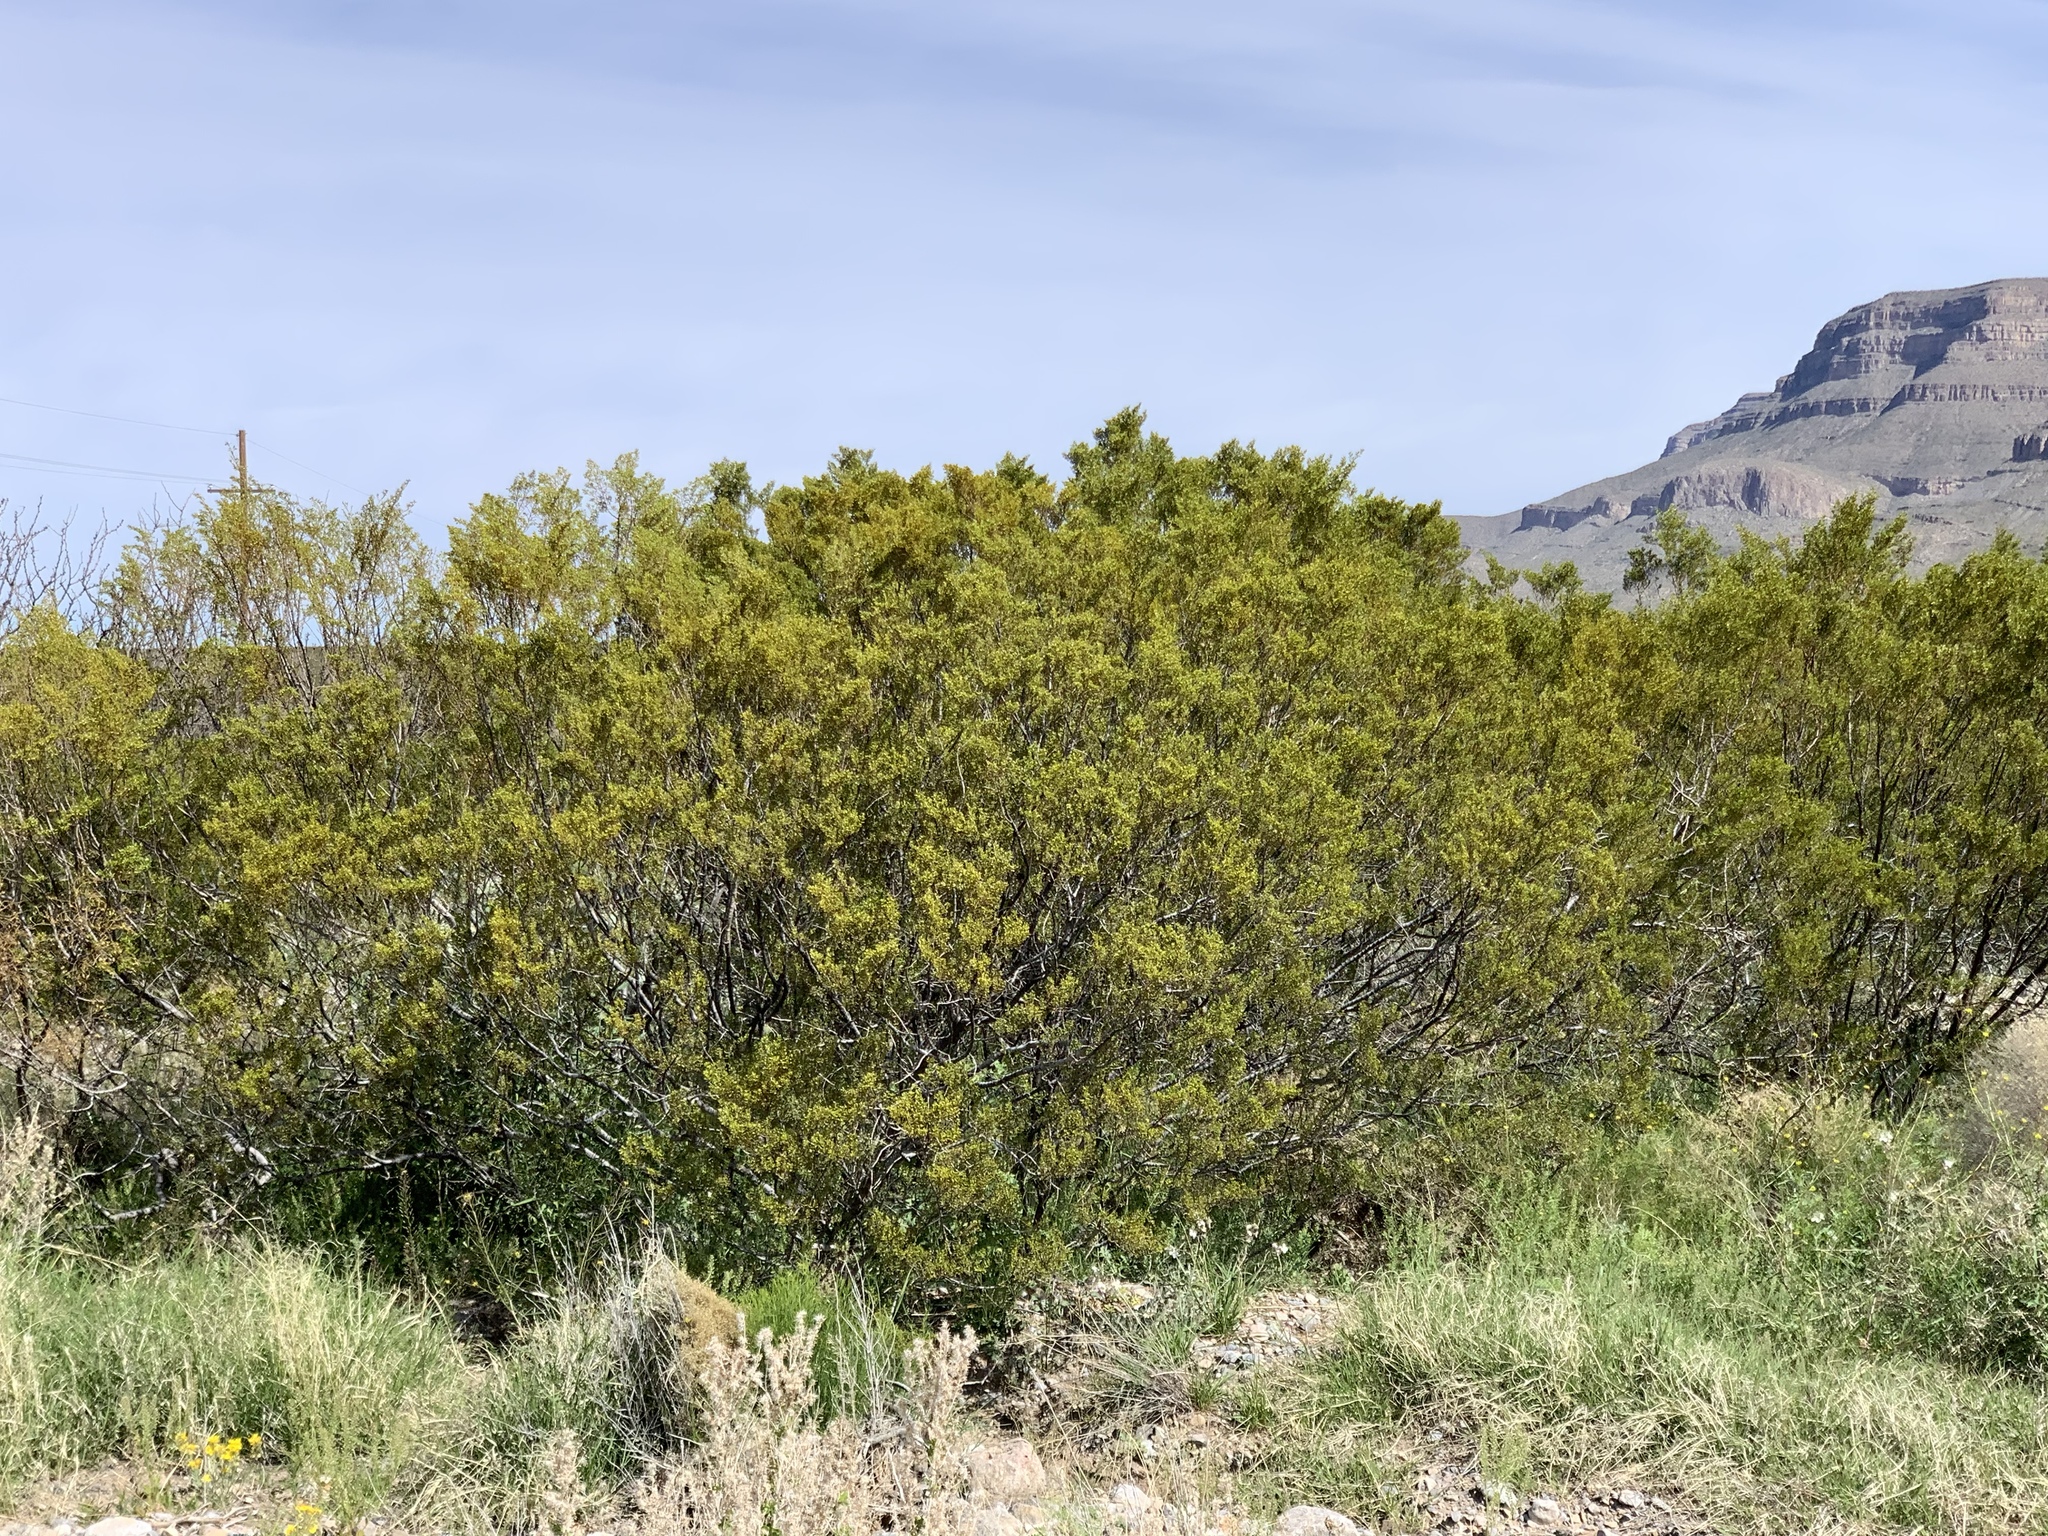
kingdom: Plantae
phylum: Tracheophyta
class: Magnoliopsida
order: Zygophyllales
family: Zygophyllaceae
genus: Larrea
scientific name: Larrea tridentata
